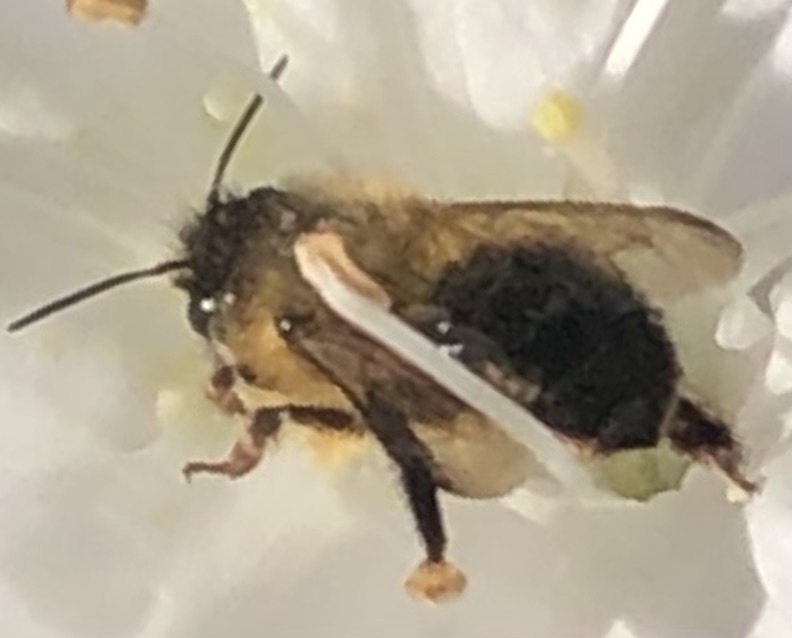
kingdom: Animalia
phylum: Arthropoda
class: Insecta
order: Hymenoptera
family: Megachilidae
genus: Osmia
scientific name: Osmia taurus
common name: Taurus mason bee
